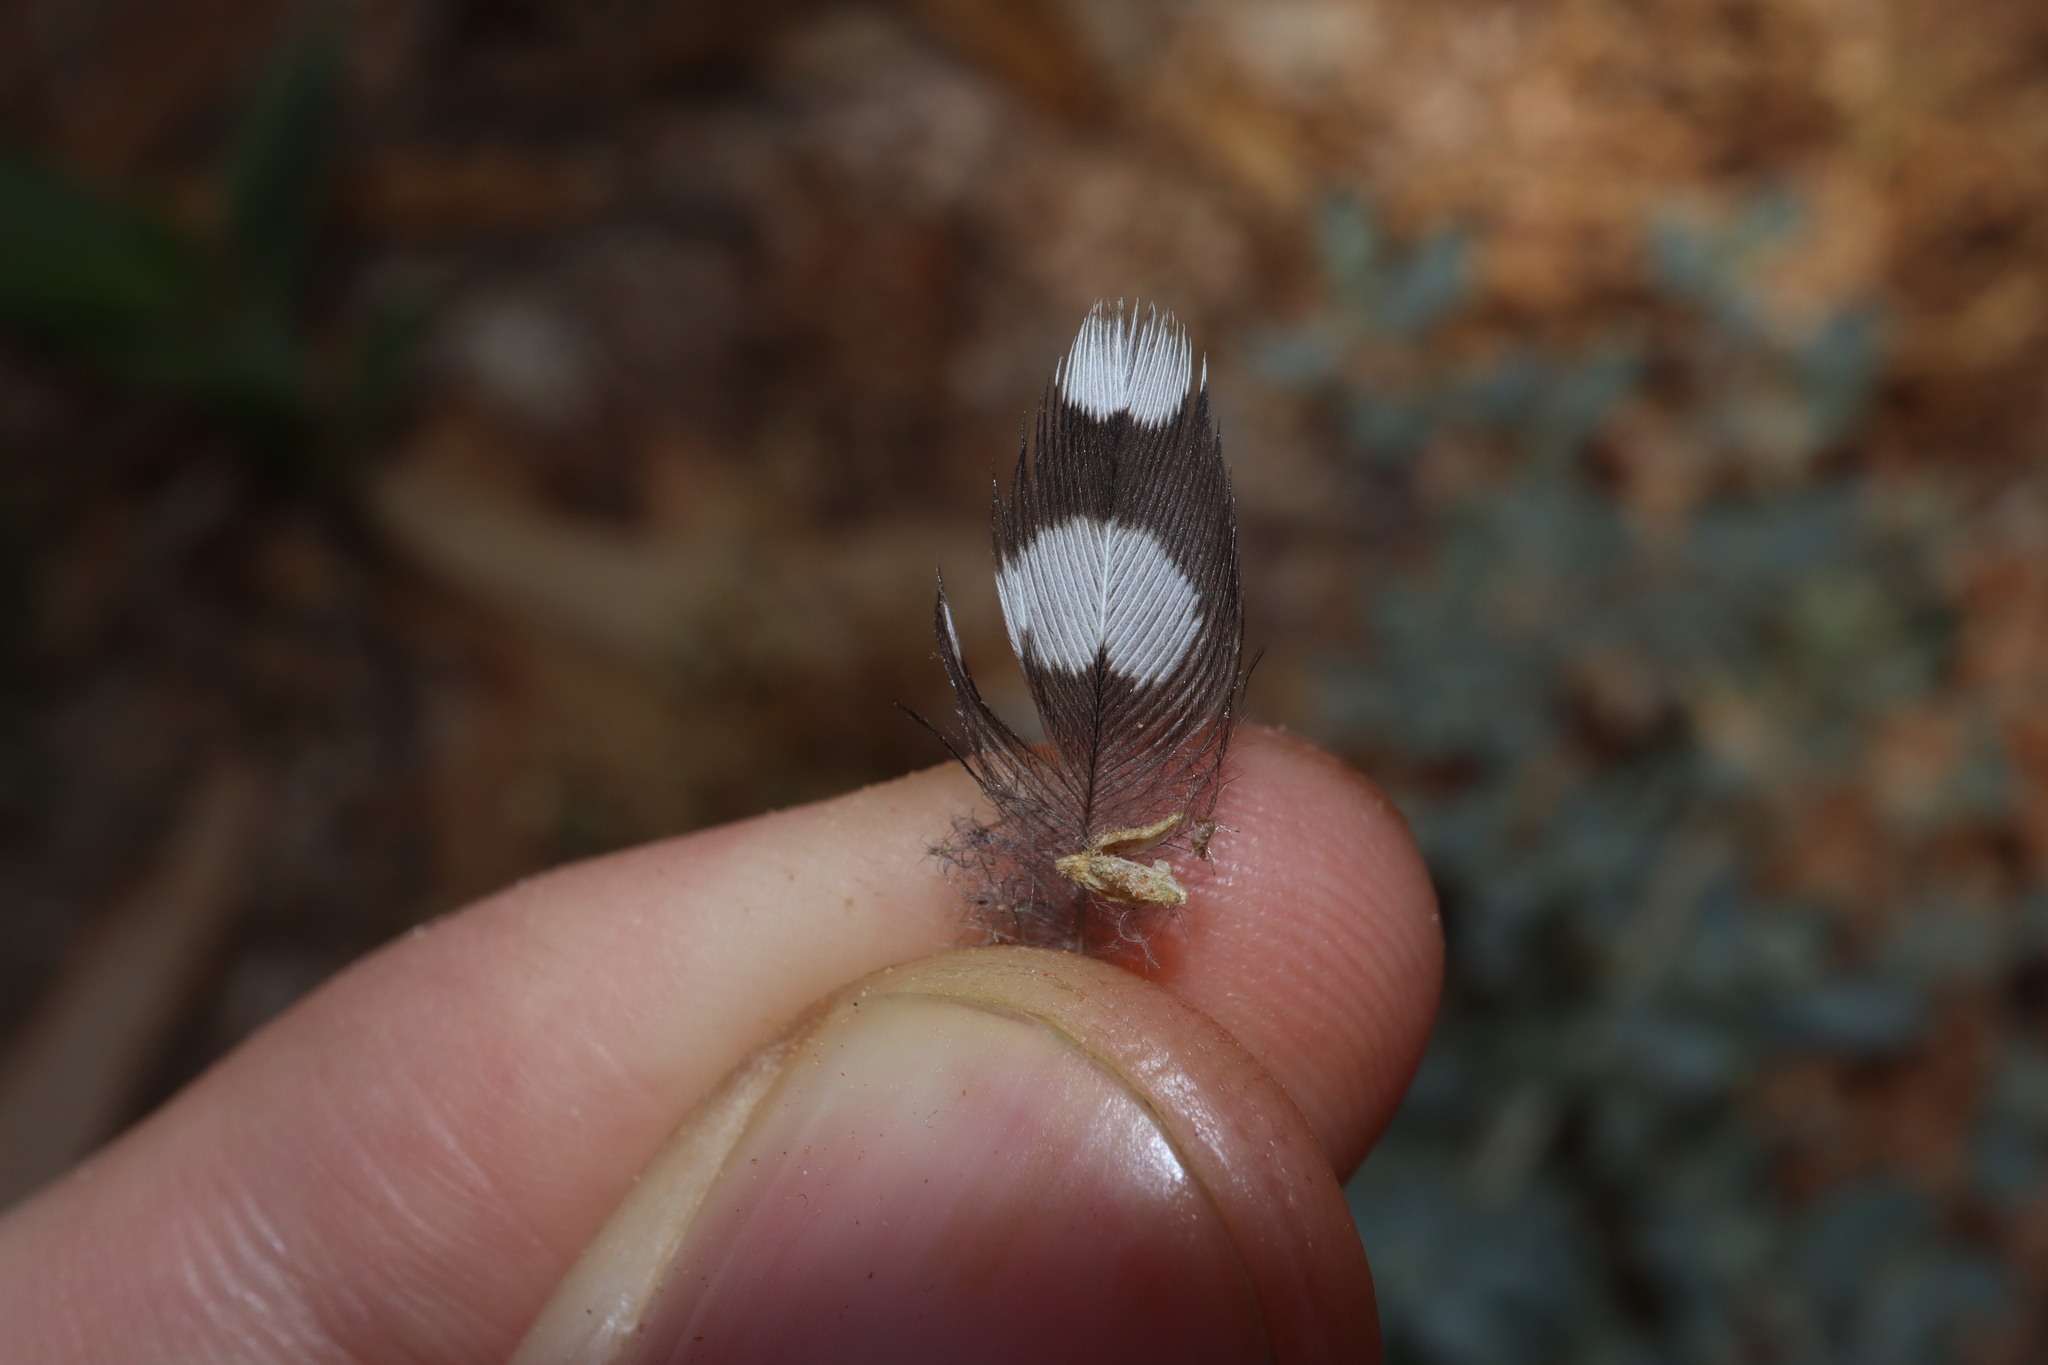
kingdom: Animalia
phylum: Chordata
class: Aves
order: Passeriformes
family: Estrildidae
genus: Taeniopygia
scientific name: Taeniopygia guttata
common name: Zebra finch
